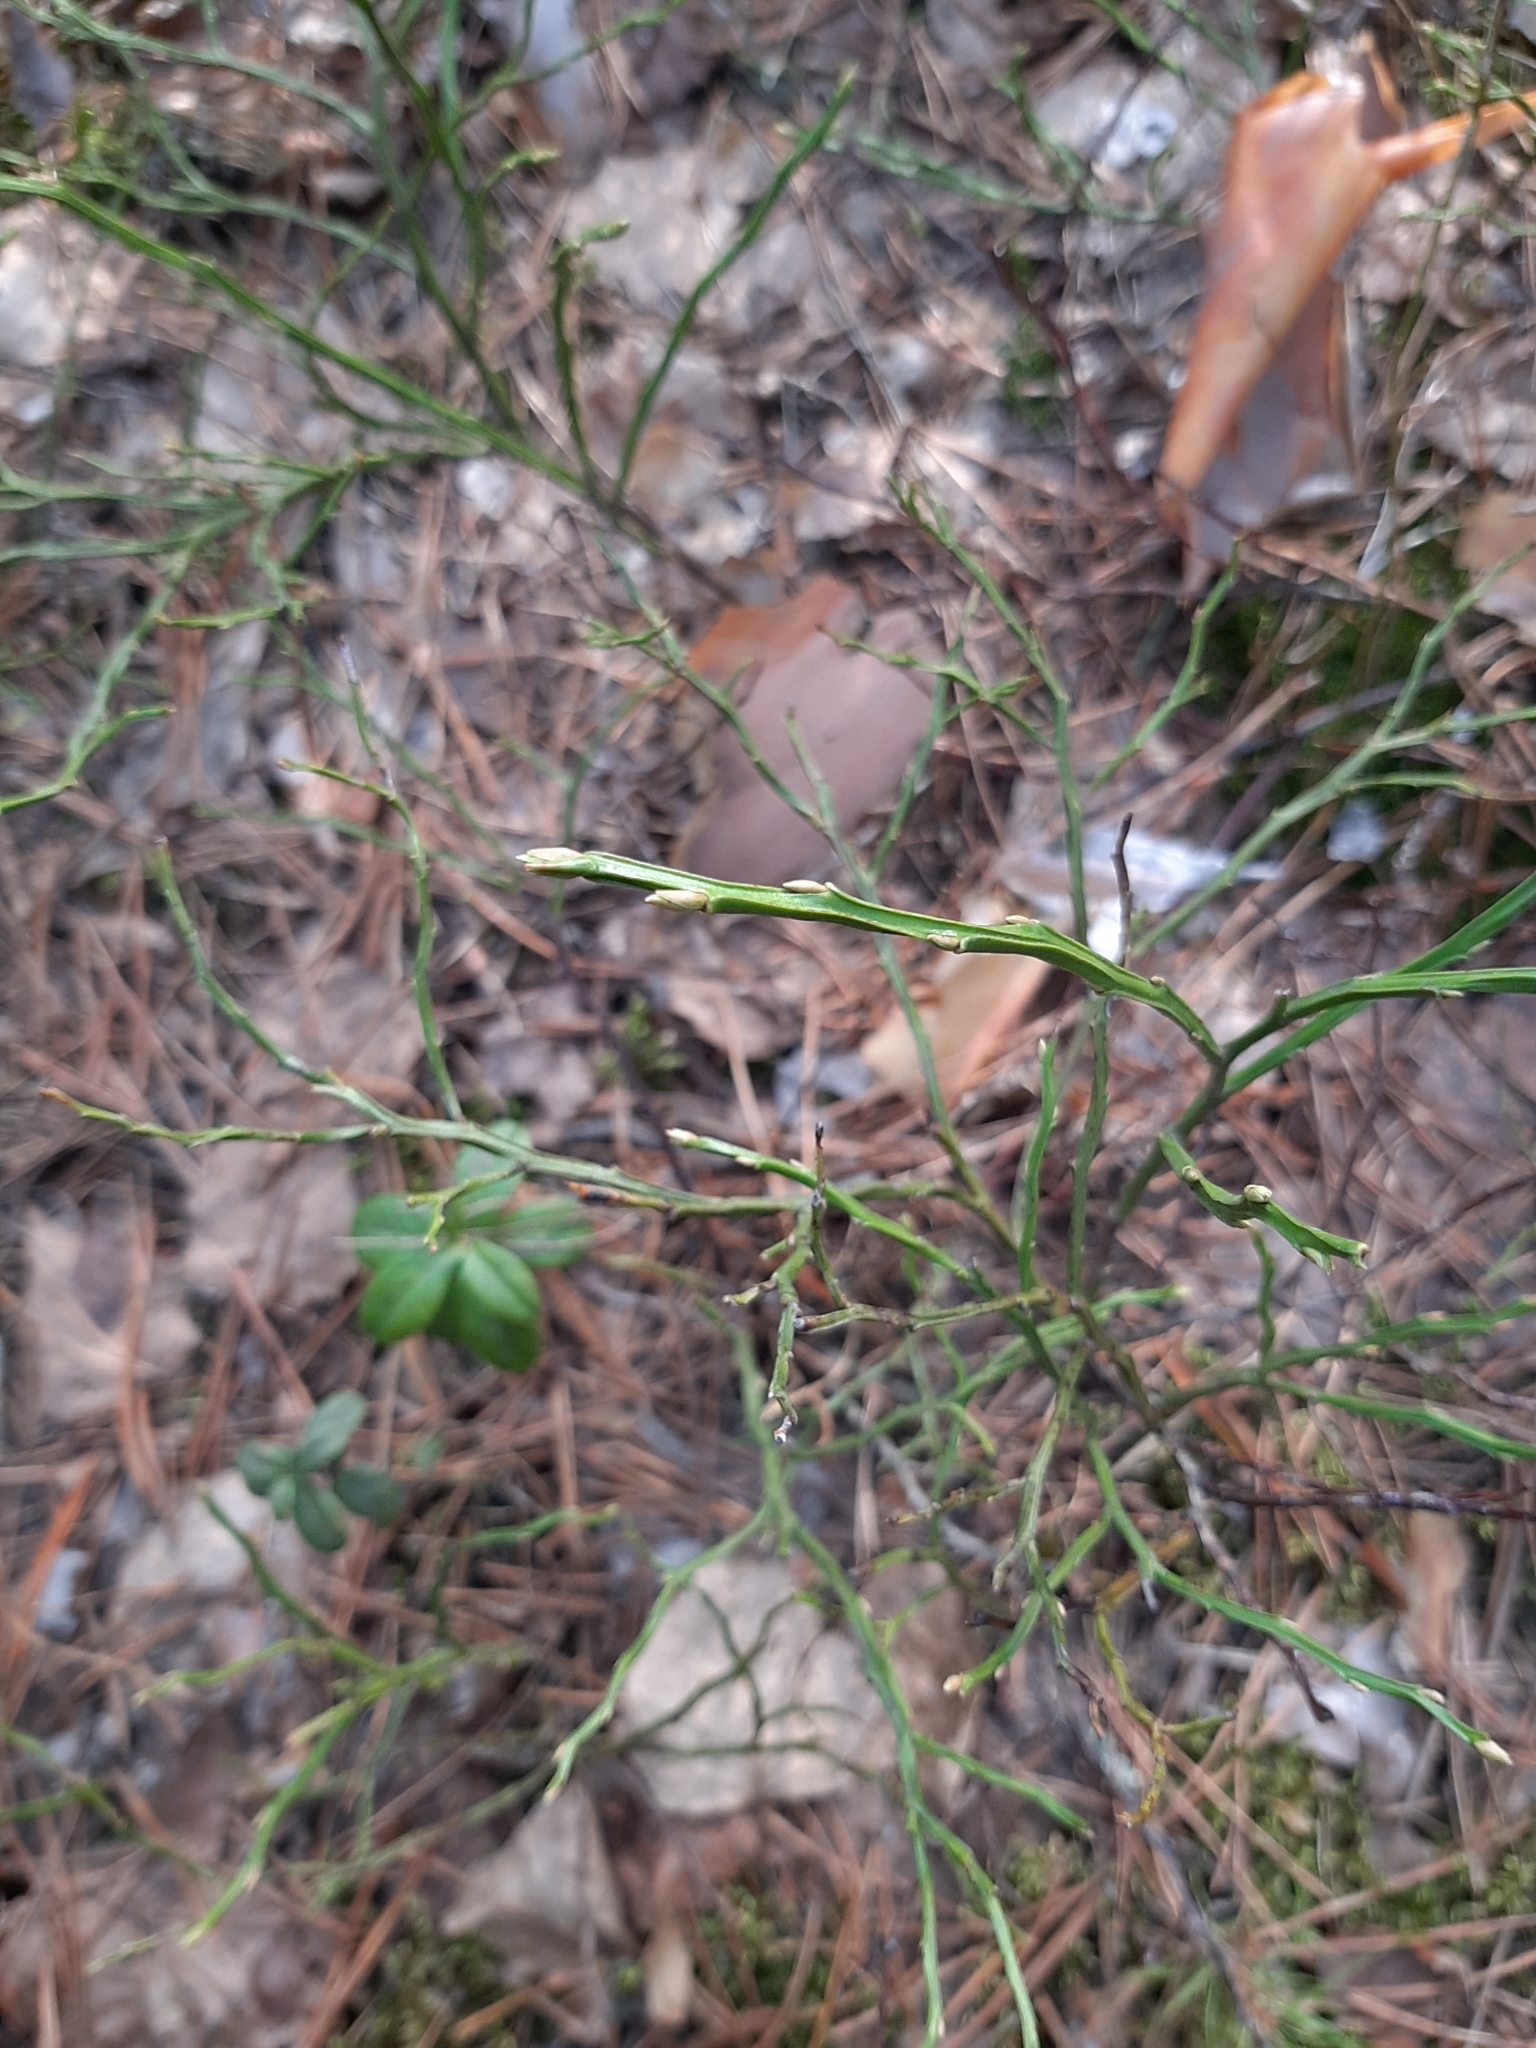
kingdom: Plantae
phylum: Tracheophyta
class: Magnoliopsida
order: Ericales
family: Ericaceae
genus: Vaccinium
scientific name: Vaccinium myrtillus
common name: Bilberry
